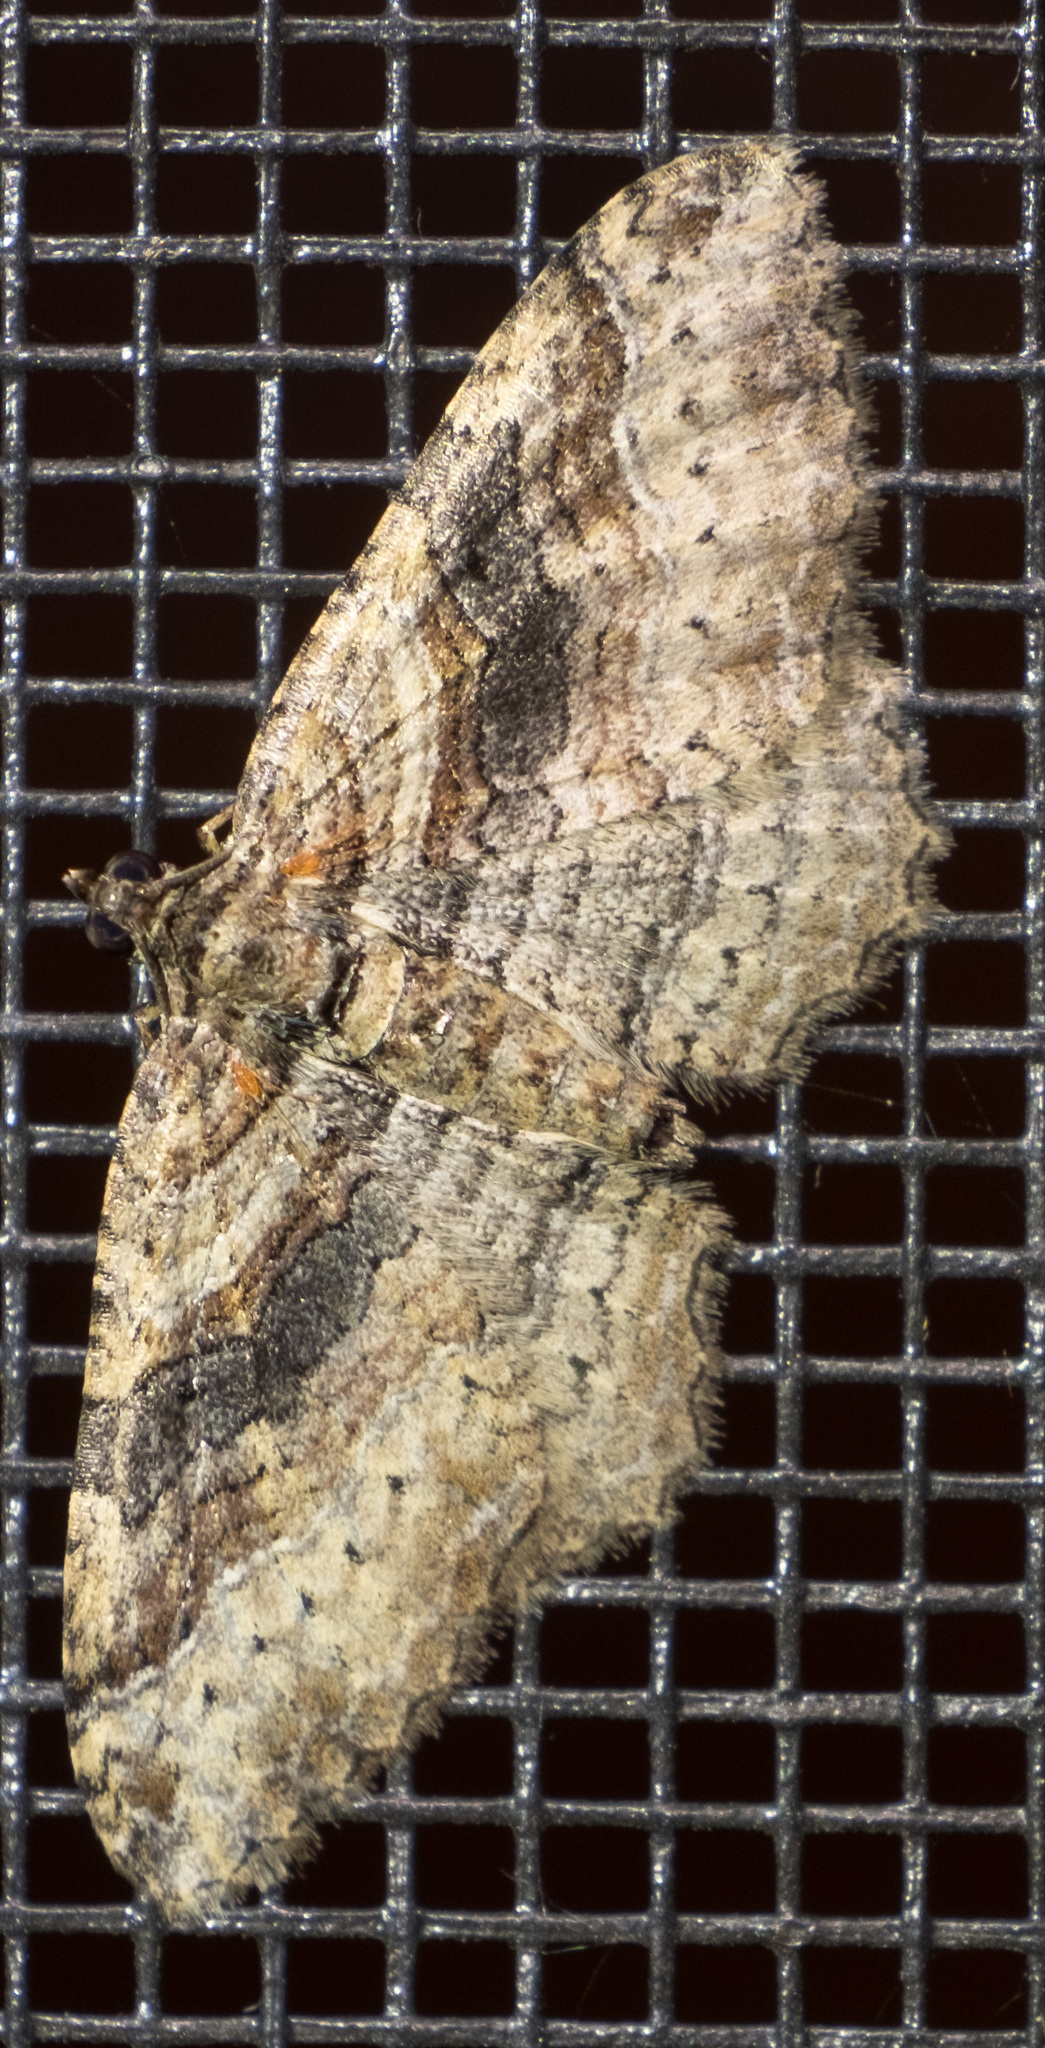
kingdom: Animalia
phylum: Arthropoda
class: Insecta
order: Lepidoptera
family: Geometridae
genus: Costaconvexa
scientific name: Costaconvexa centrostrigaria
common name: Bent-line carpet
